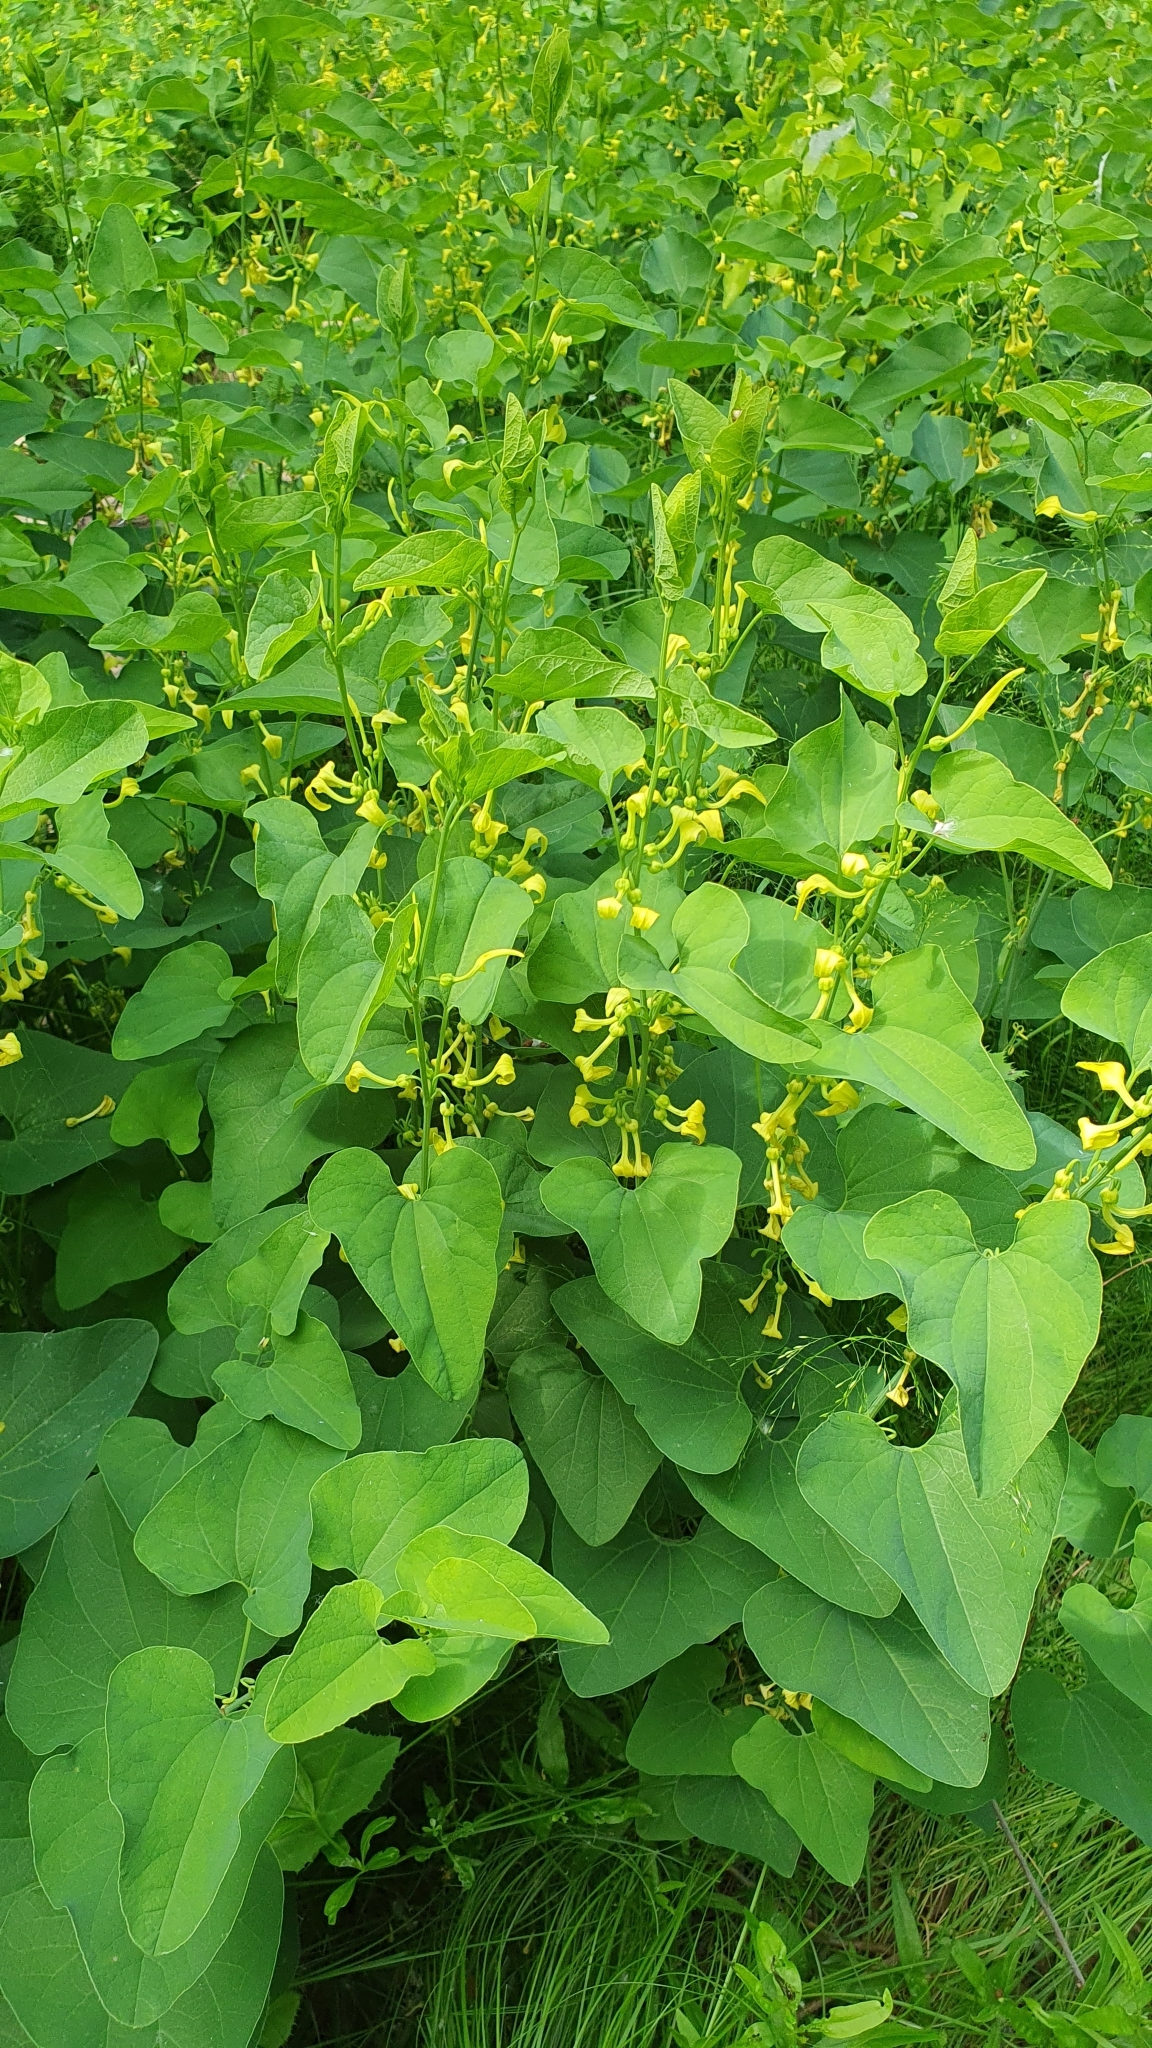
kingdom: Plantae
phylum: Tracheophyta
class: Magnoliopsida
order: Piperales
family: Aristolochiaceae
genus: Aristolochia
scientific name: Aristolochia clematitis
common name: Birthwort
